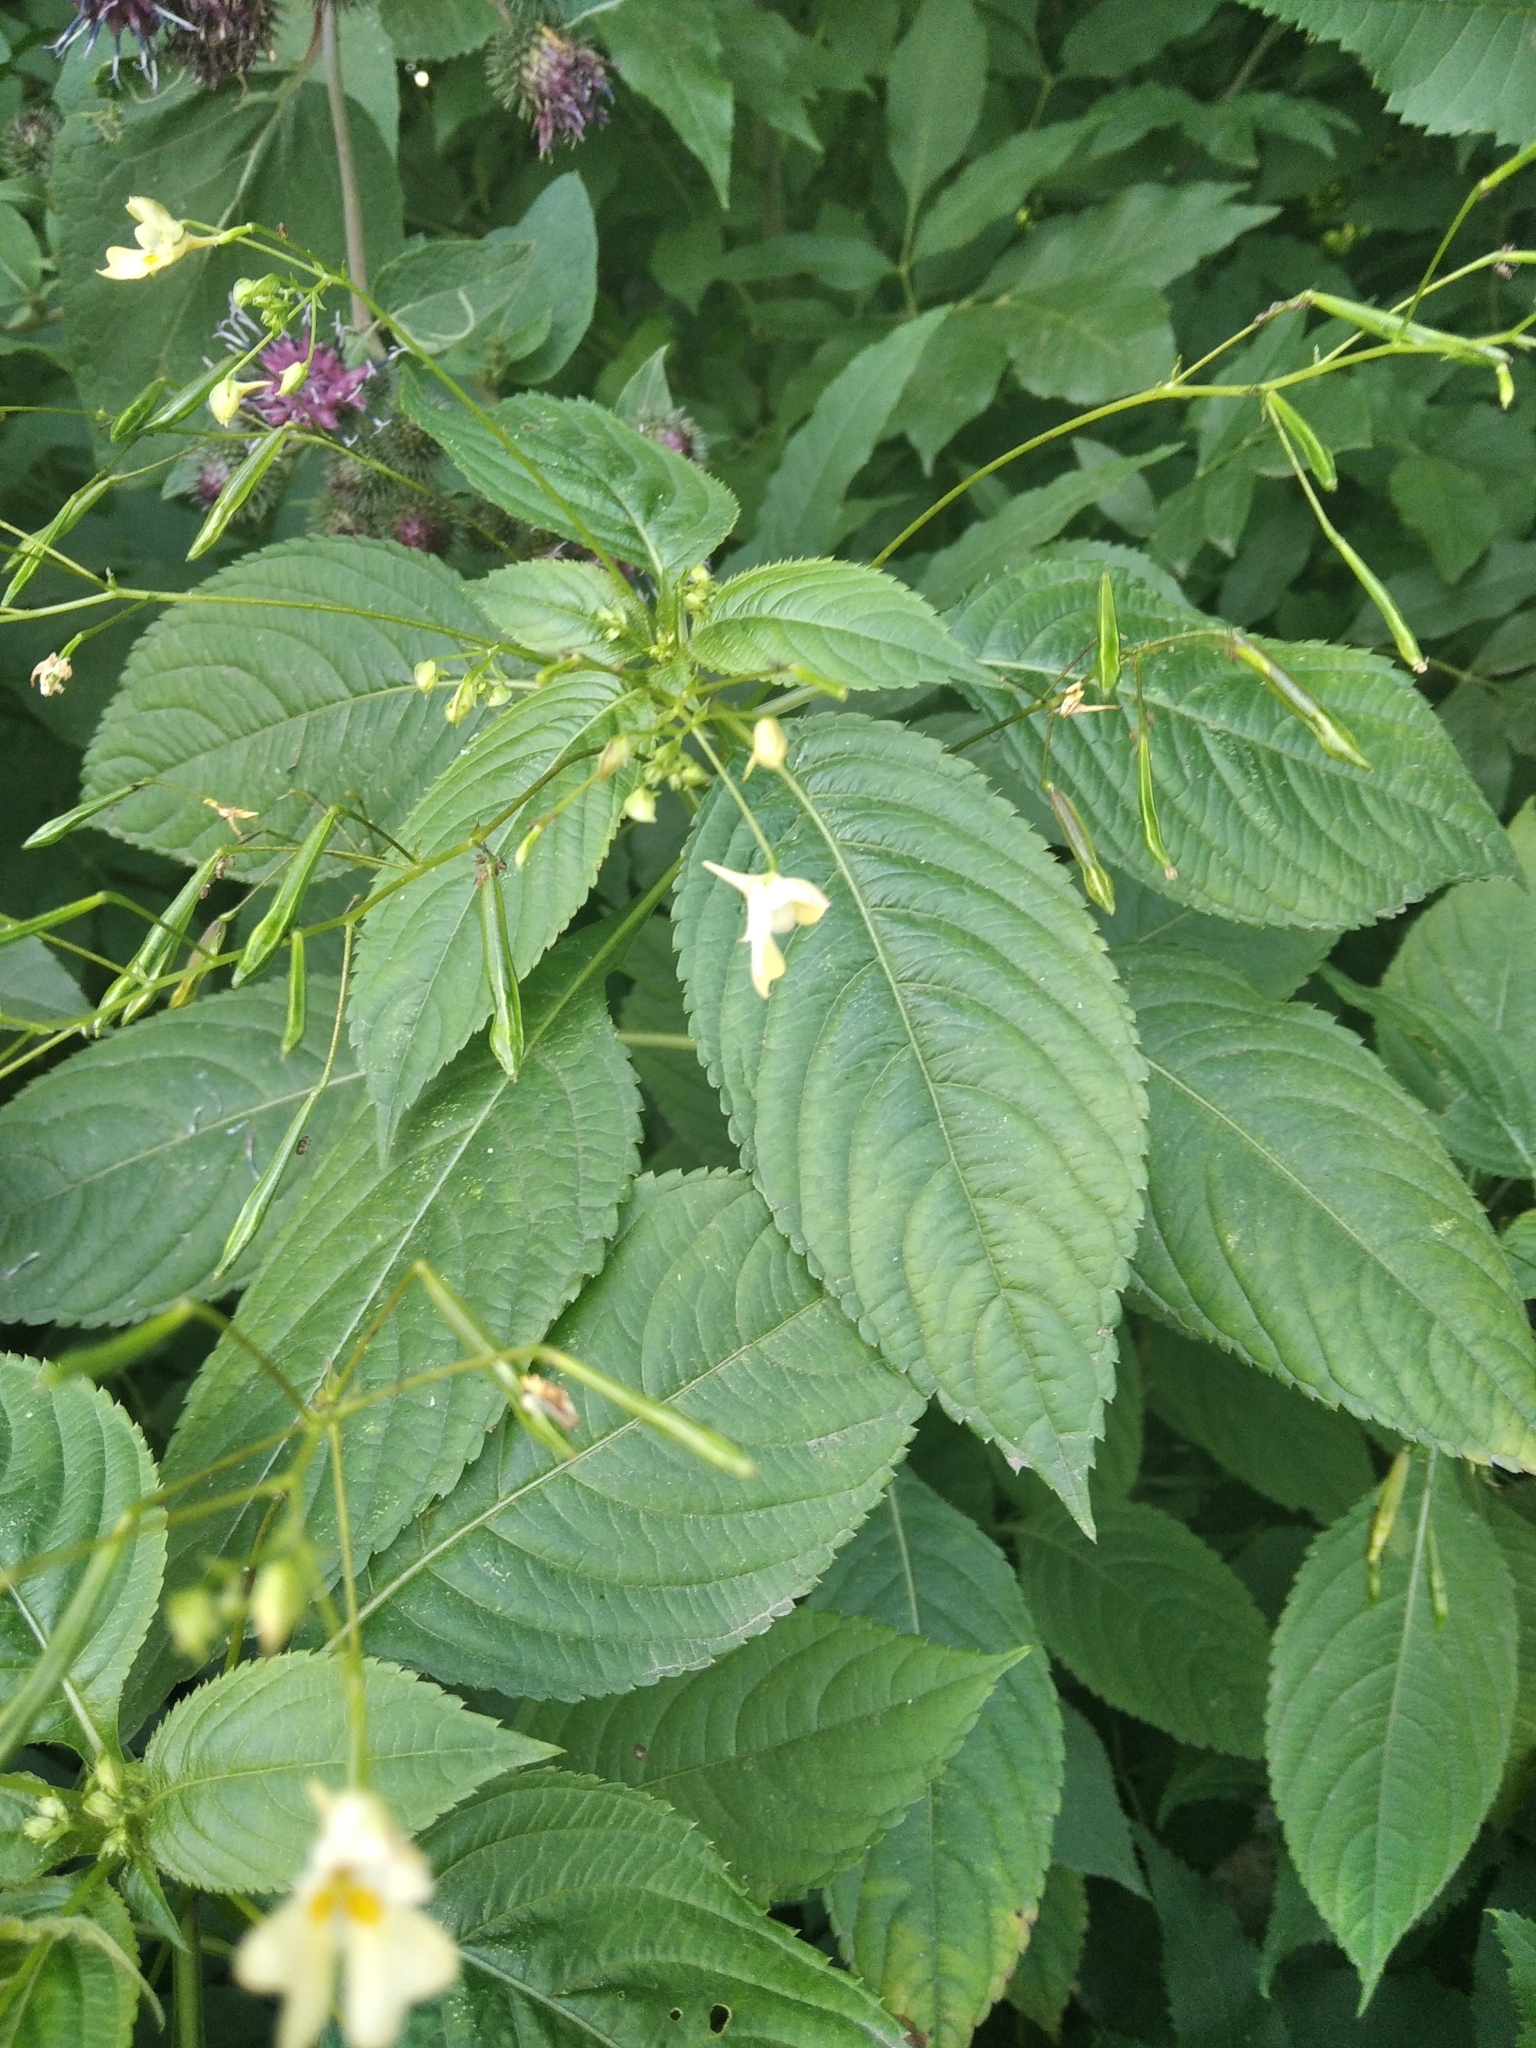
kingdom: Plantae
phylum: Tracheophyta
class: Magnoliopsida
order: Ericales
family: Balsaminaceae
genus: Impatiens
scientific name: Impatiens parviflora
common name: Small balsam
